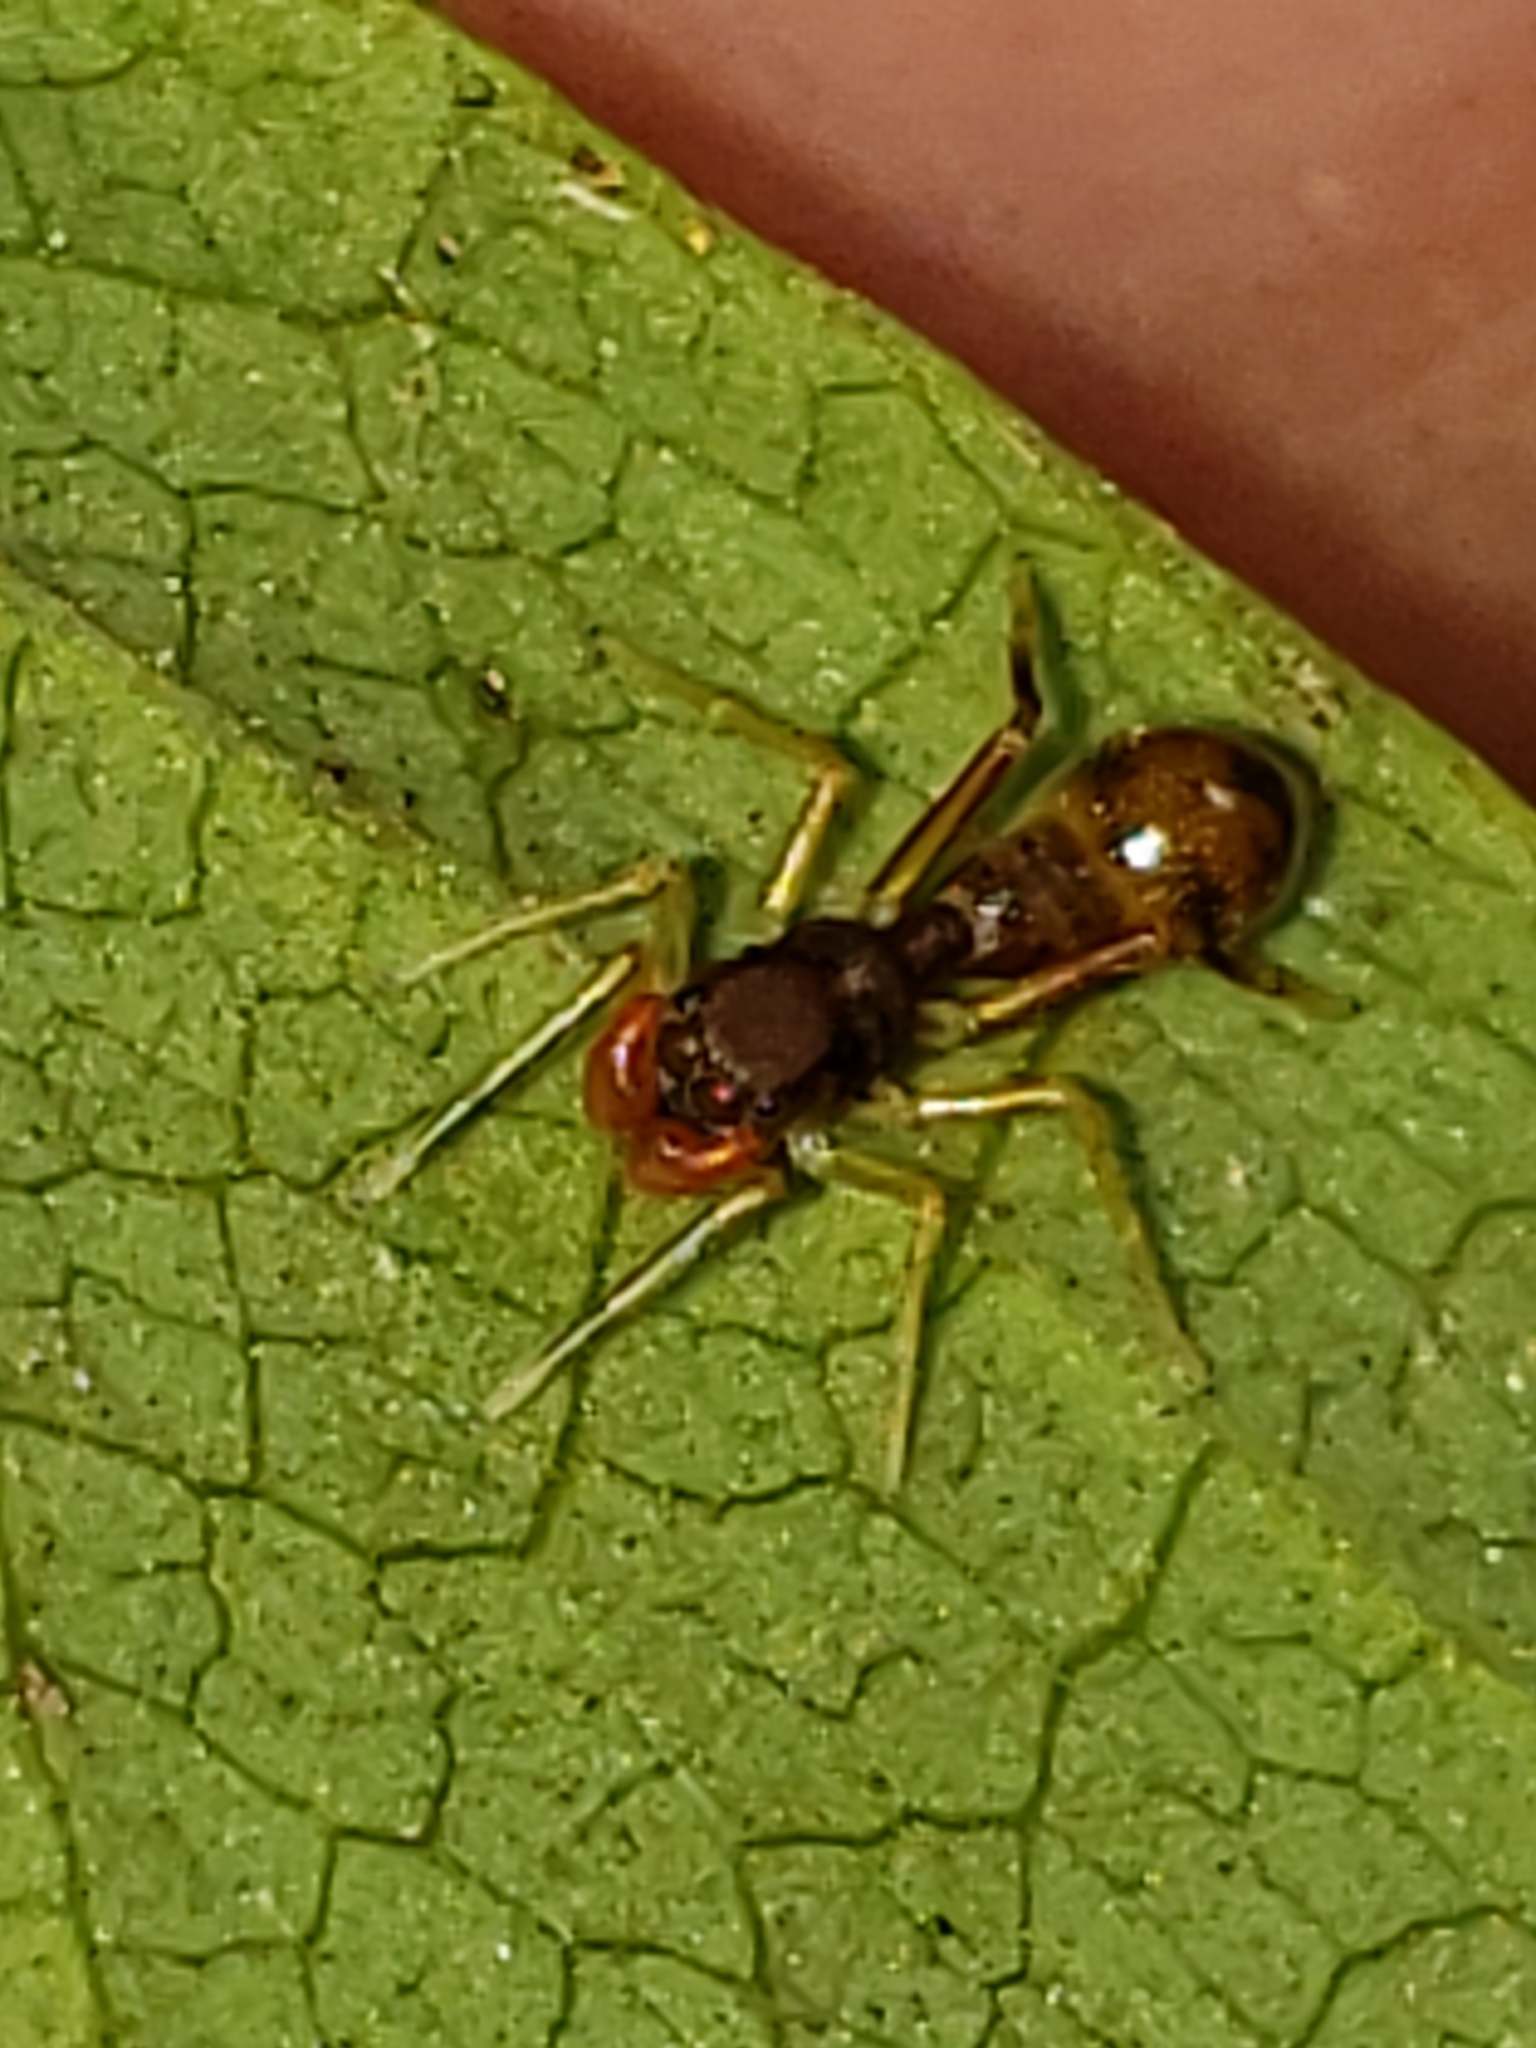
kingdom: Animalia
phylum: Arthropoda
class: Arachnida
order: Araneae
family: Salticidae
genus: Synemosyna
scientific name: Synemosyna formica
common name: Slender ant-mimic jumping spider
